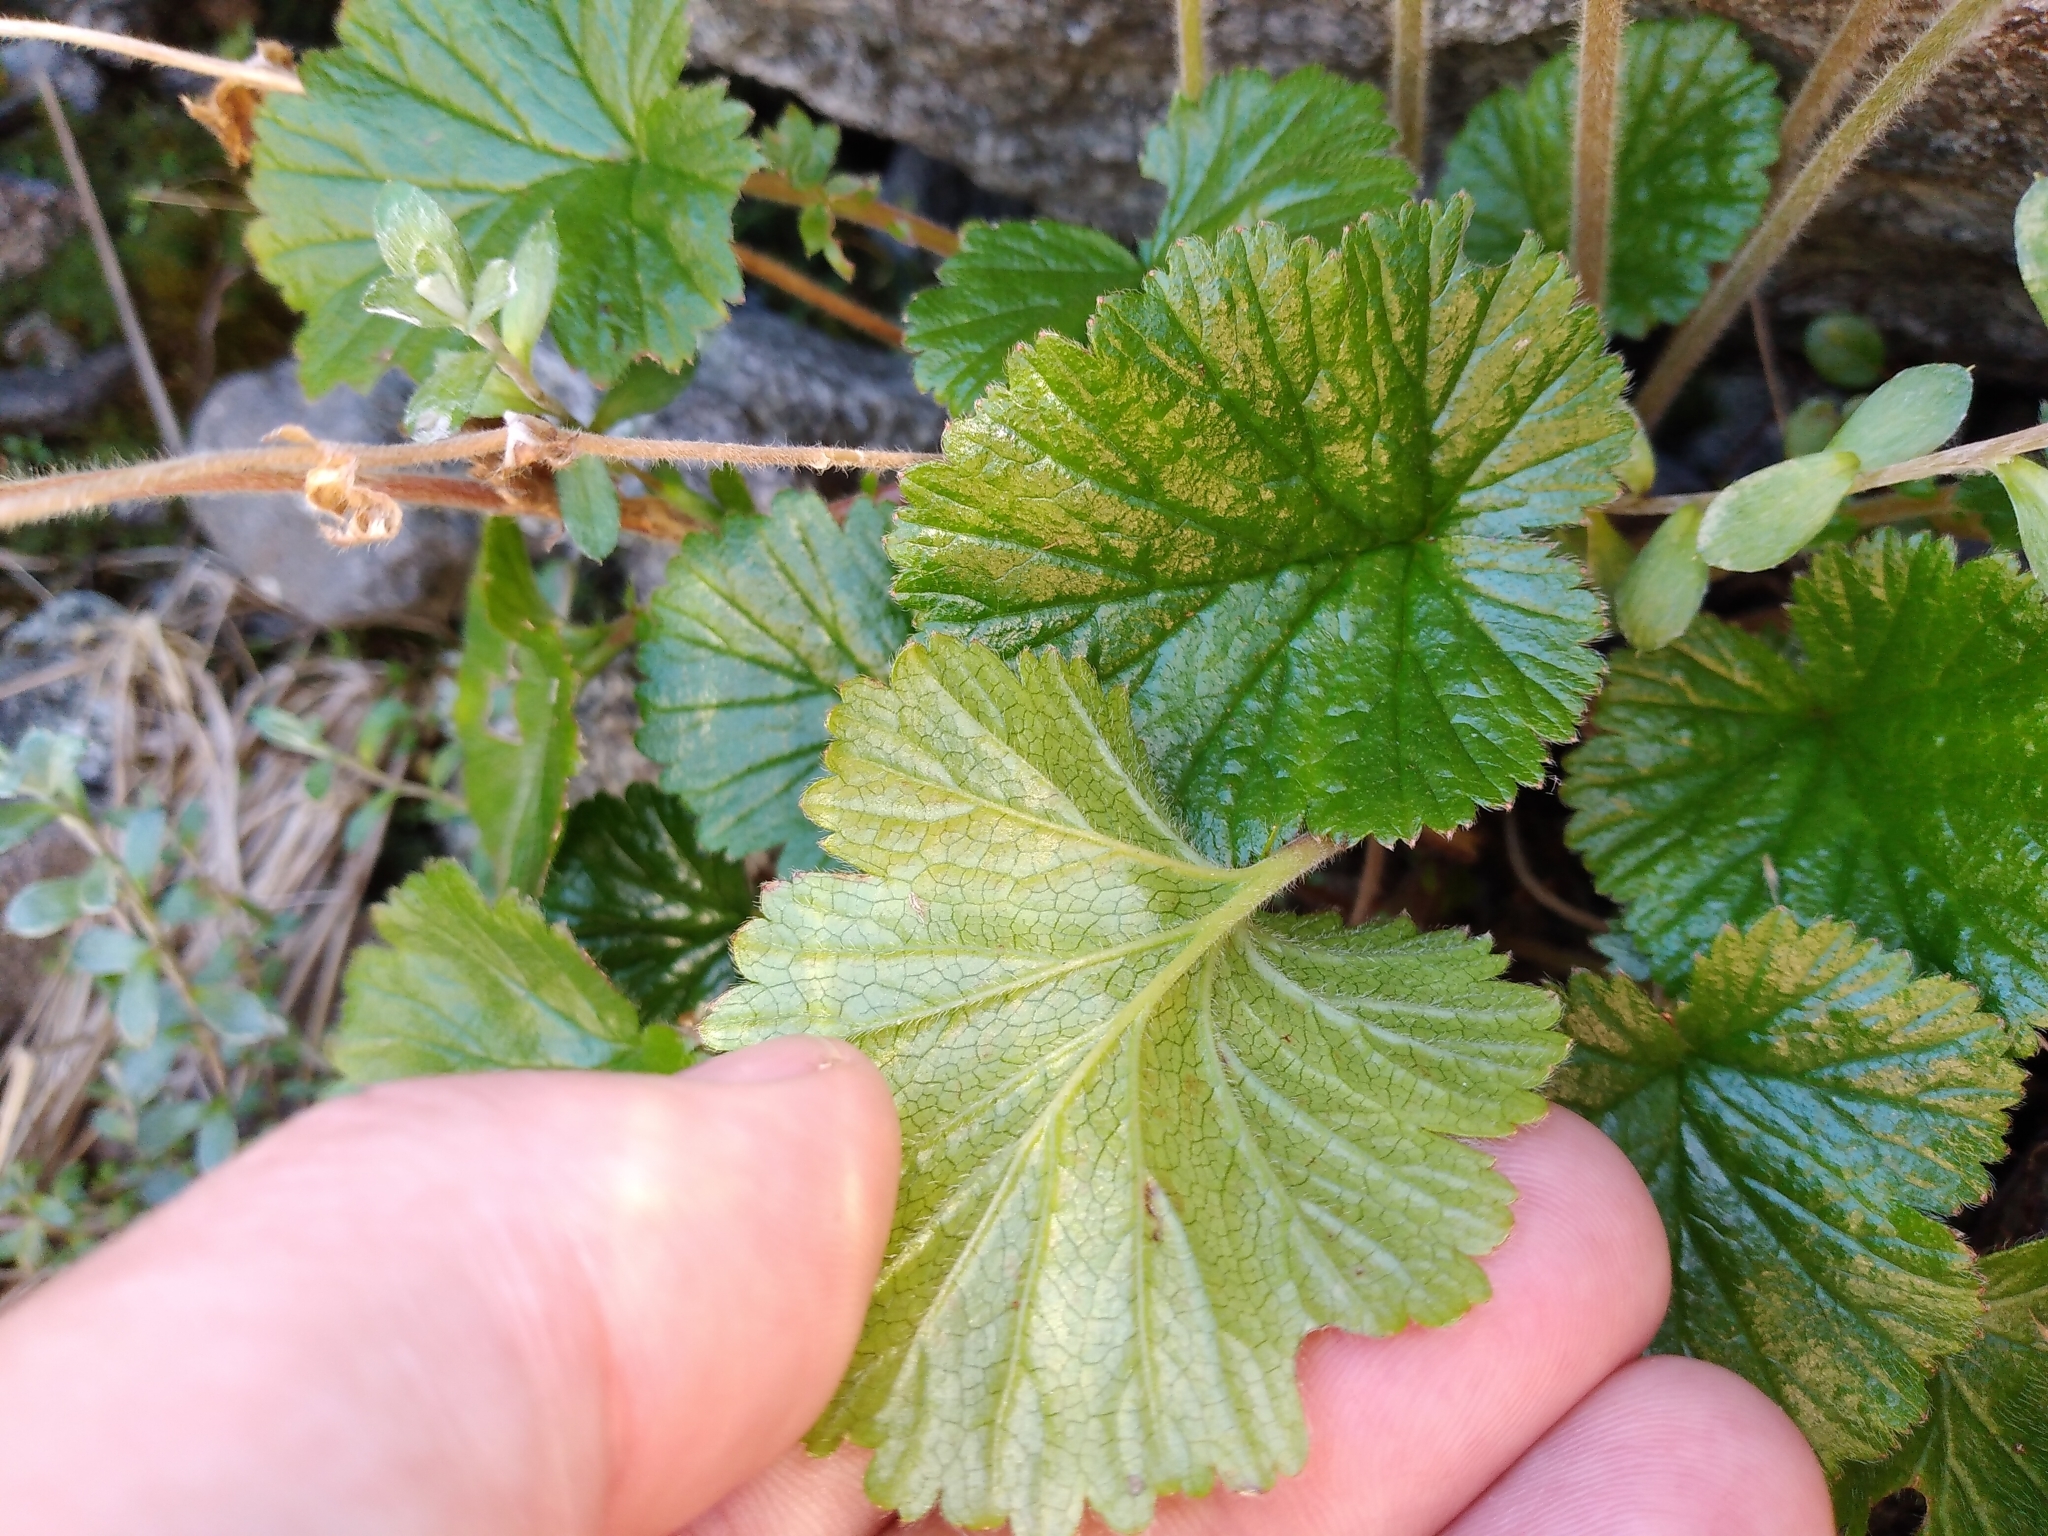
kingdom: Plantae
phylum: Tracheophyta
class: Magnoliopsida
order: Rosales
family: Rosaceae
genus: Geum
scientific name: Geum cockaynei
